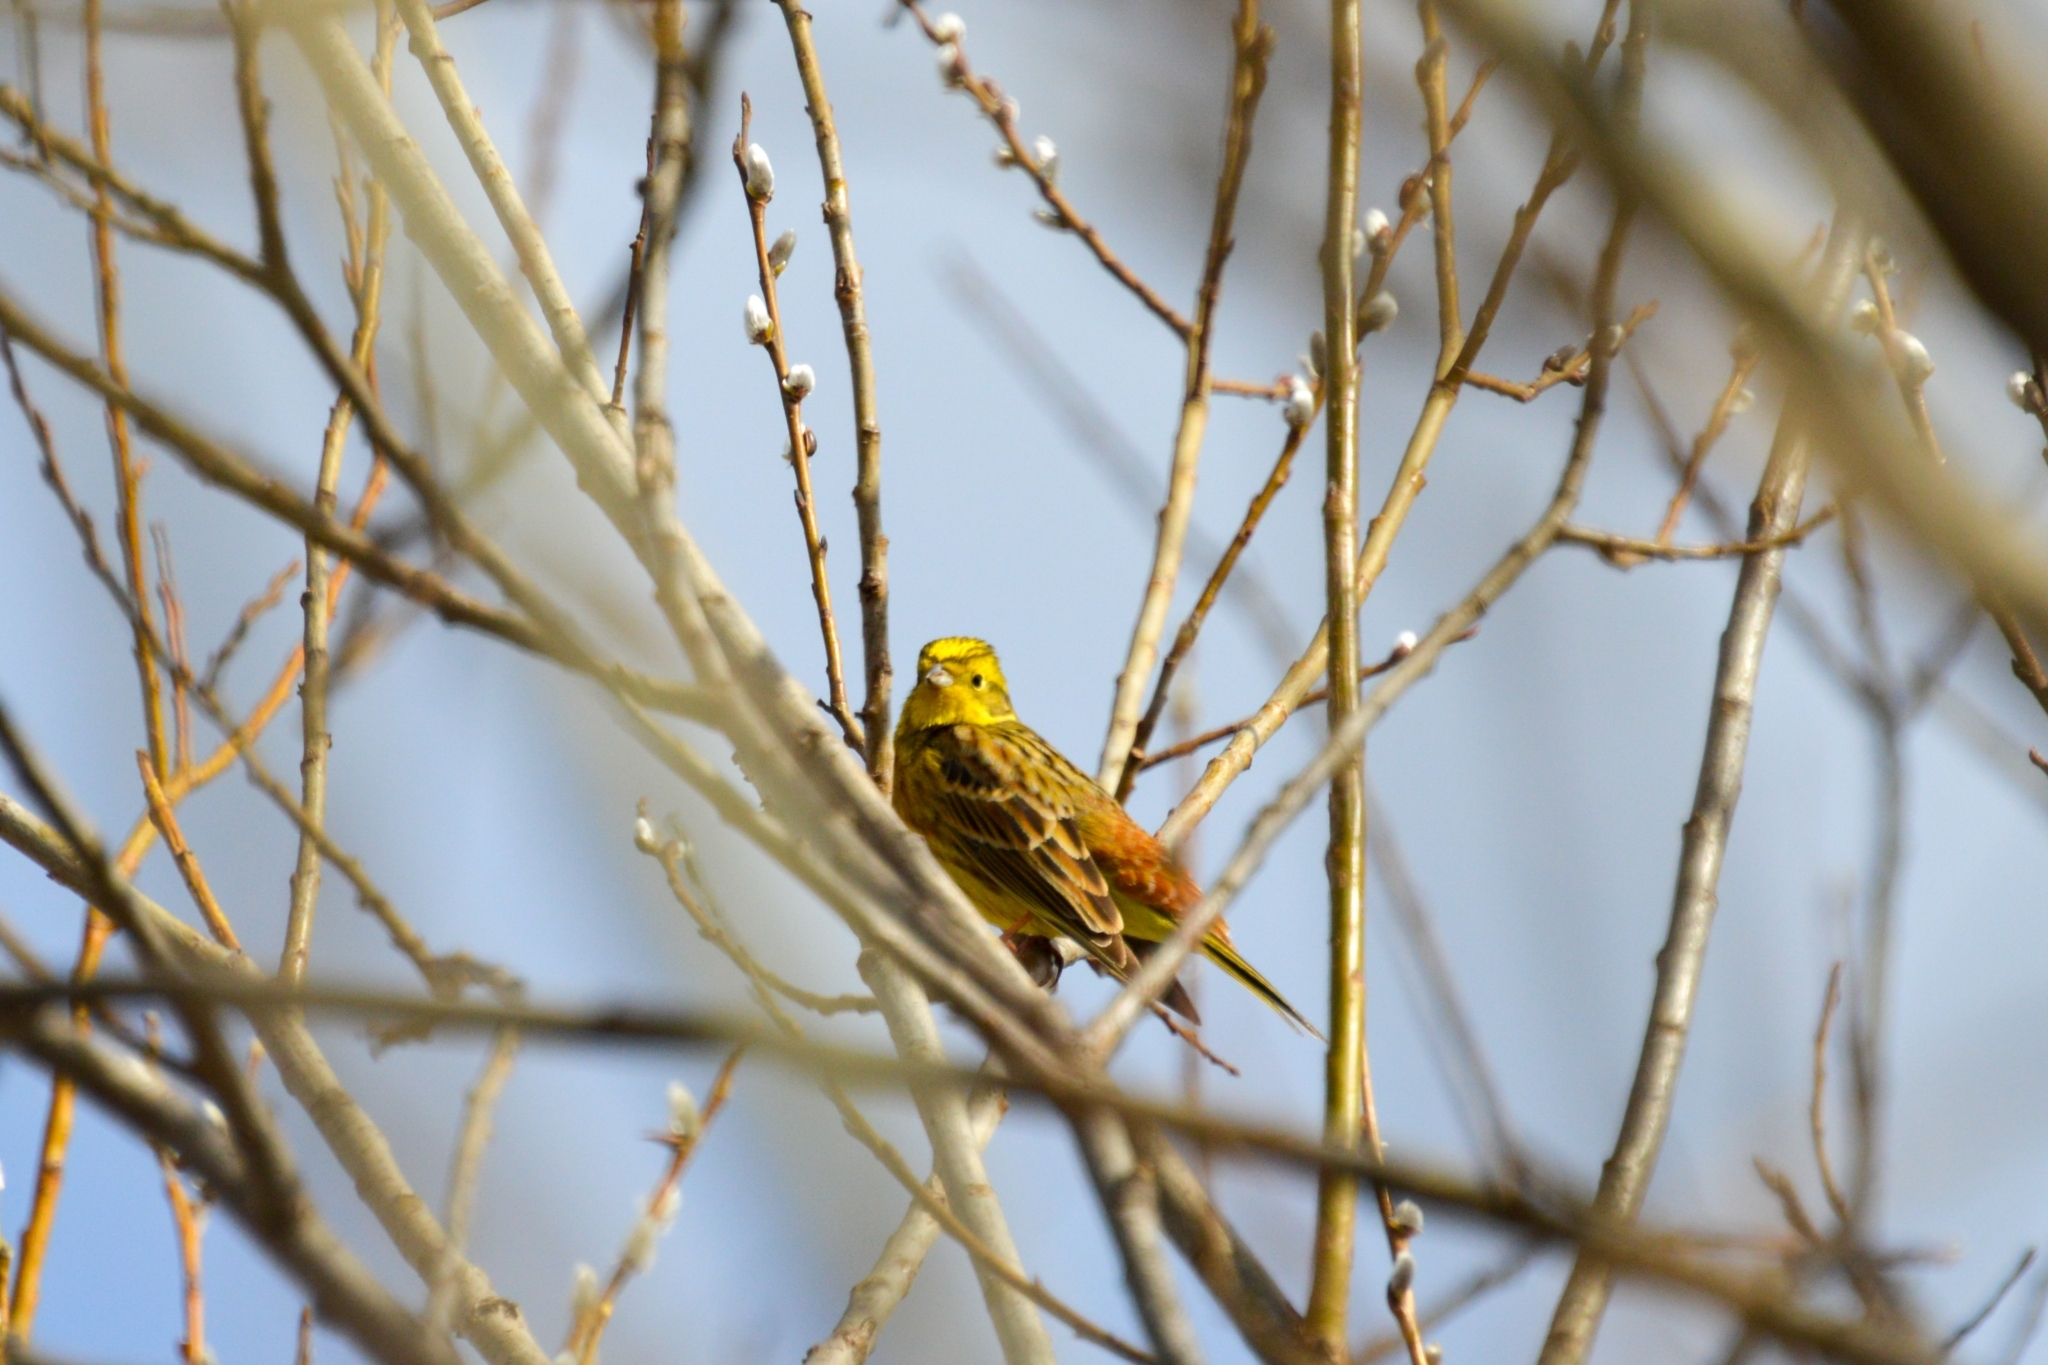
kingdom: Animalia
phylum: Chordata
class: Aves
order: Passeriformes
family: Emberizidae
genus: Emberiza
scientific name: Emberiza citrinella
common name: Yellowhammer
